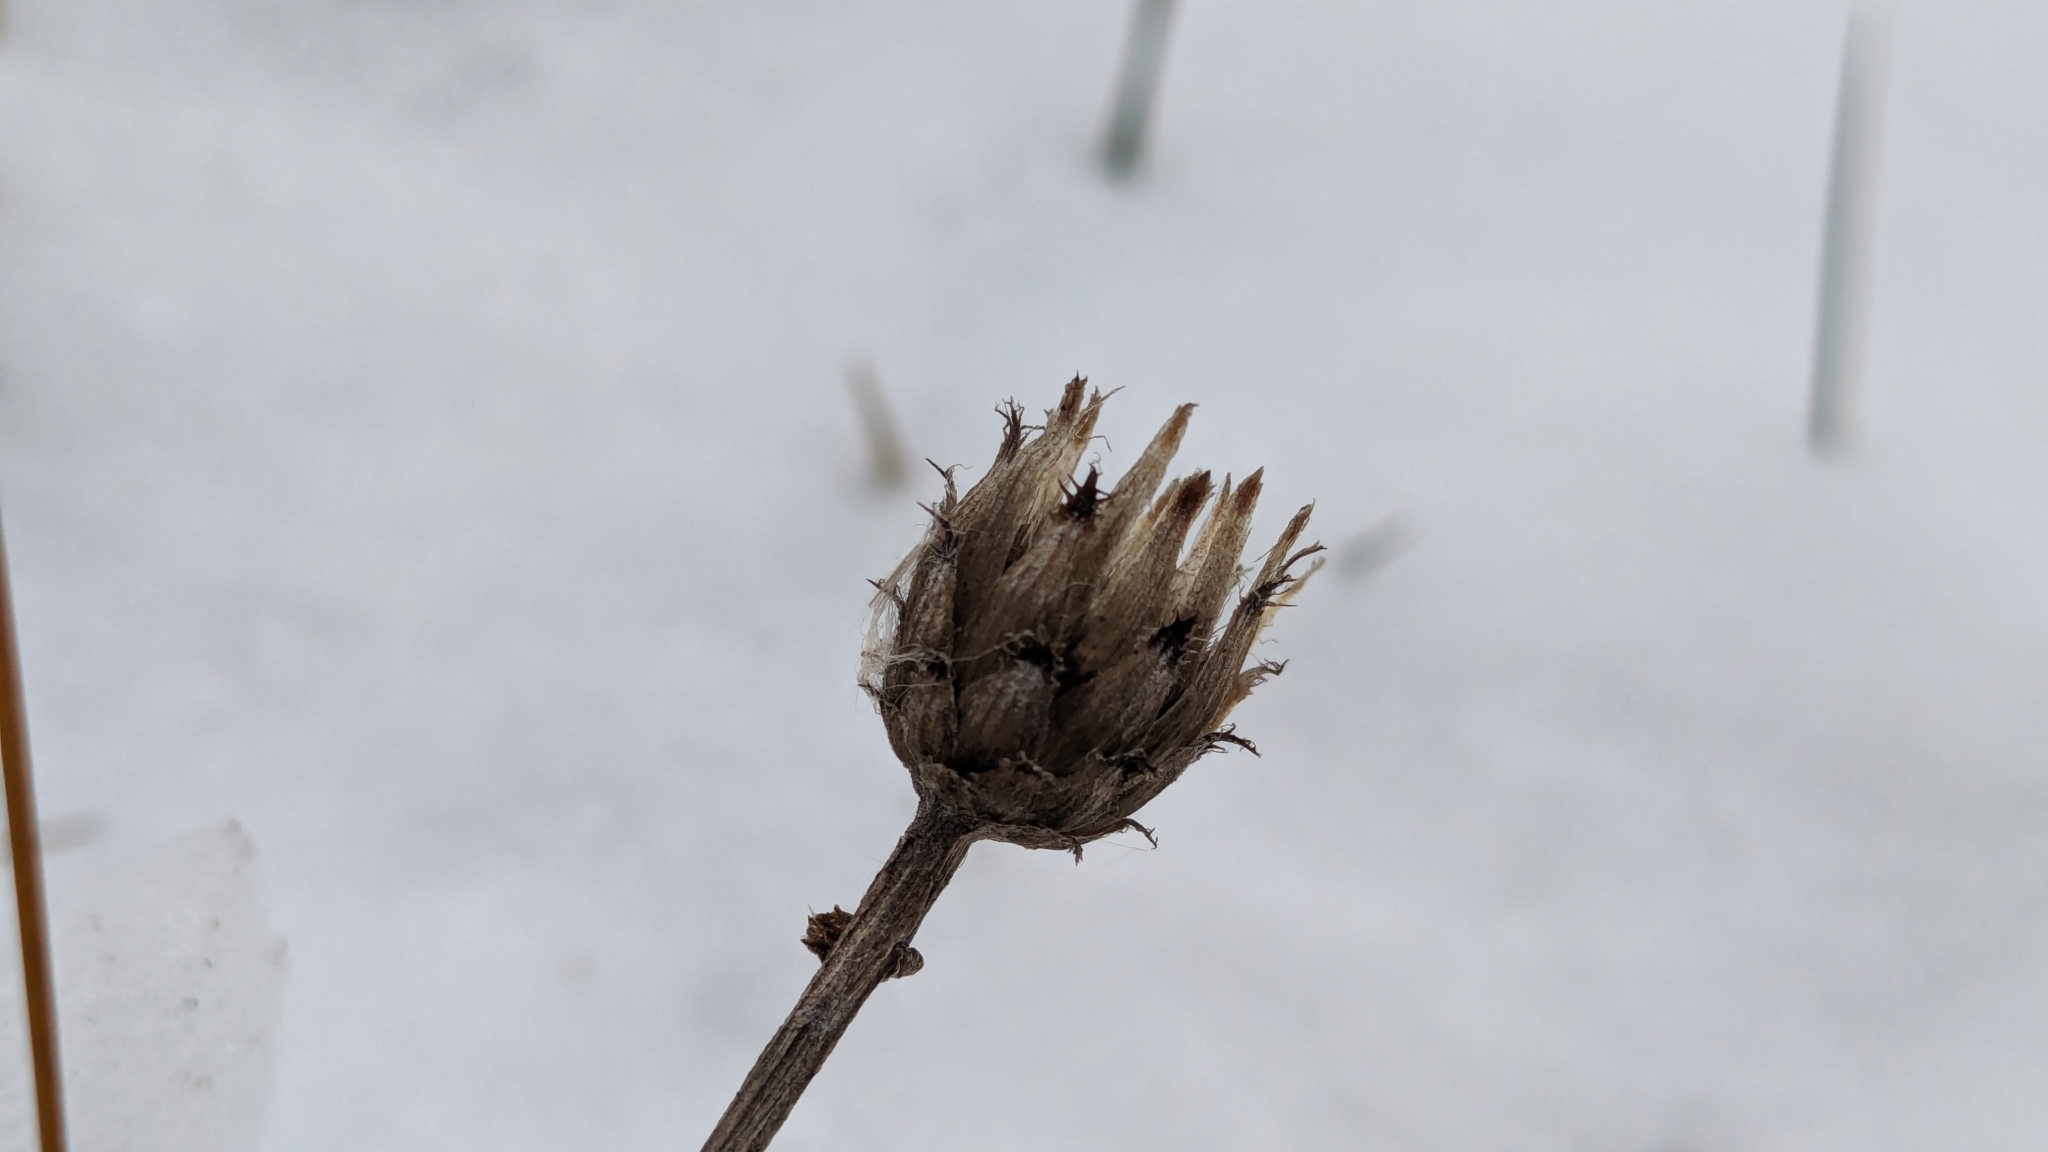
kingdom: Plantae
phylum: Tracheophyta
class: Magnoliopsida
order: Asterales
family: Asteraceae
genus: Centaurea
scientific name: Centaurea stoebe
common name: Spotted knapweed
